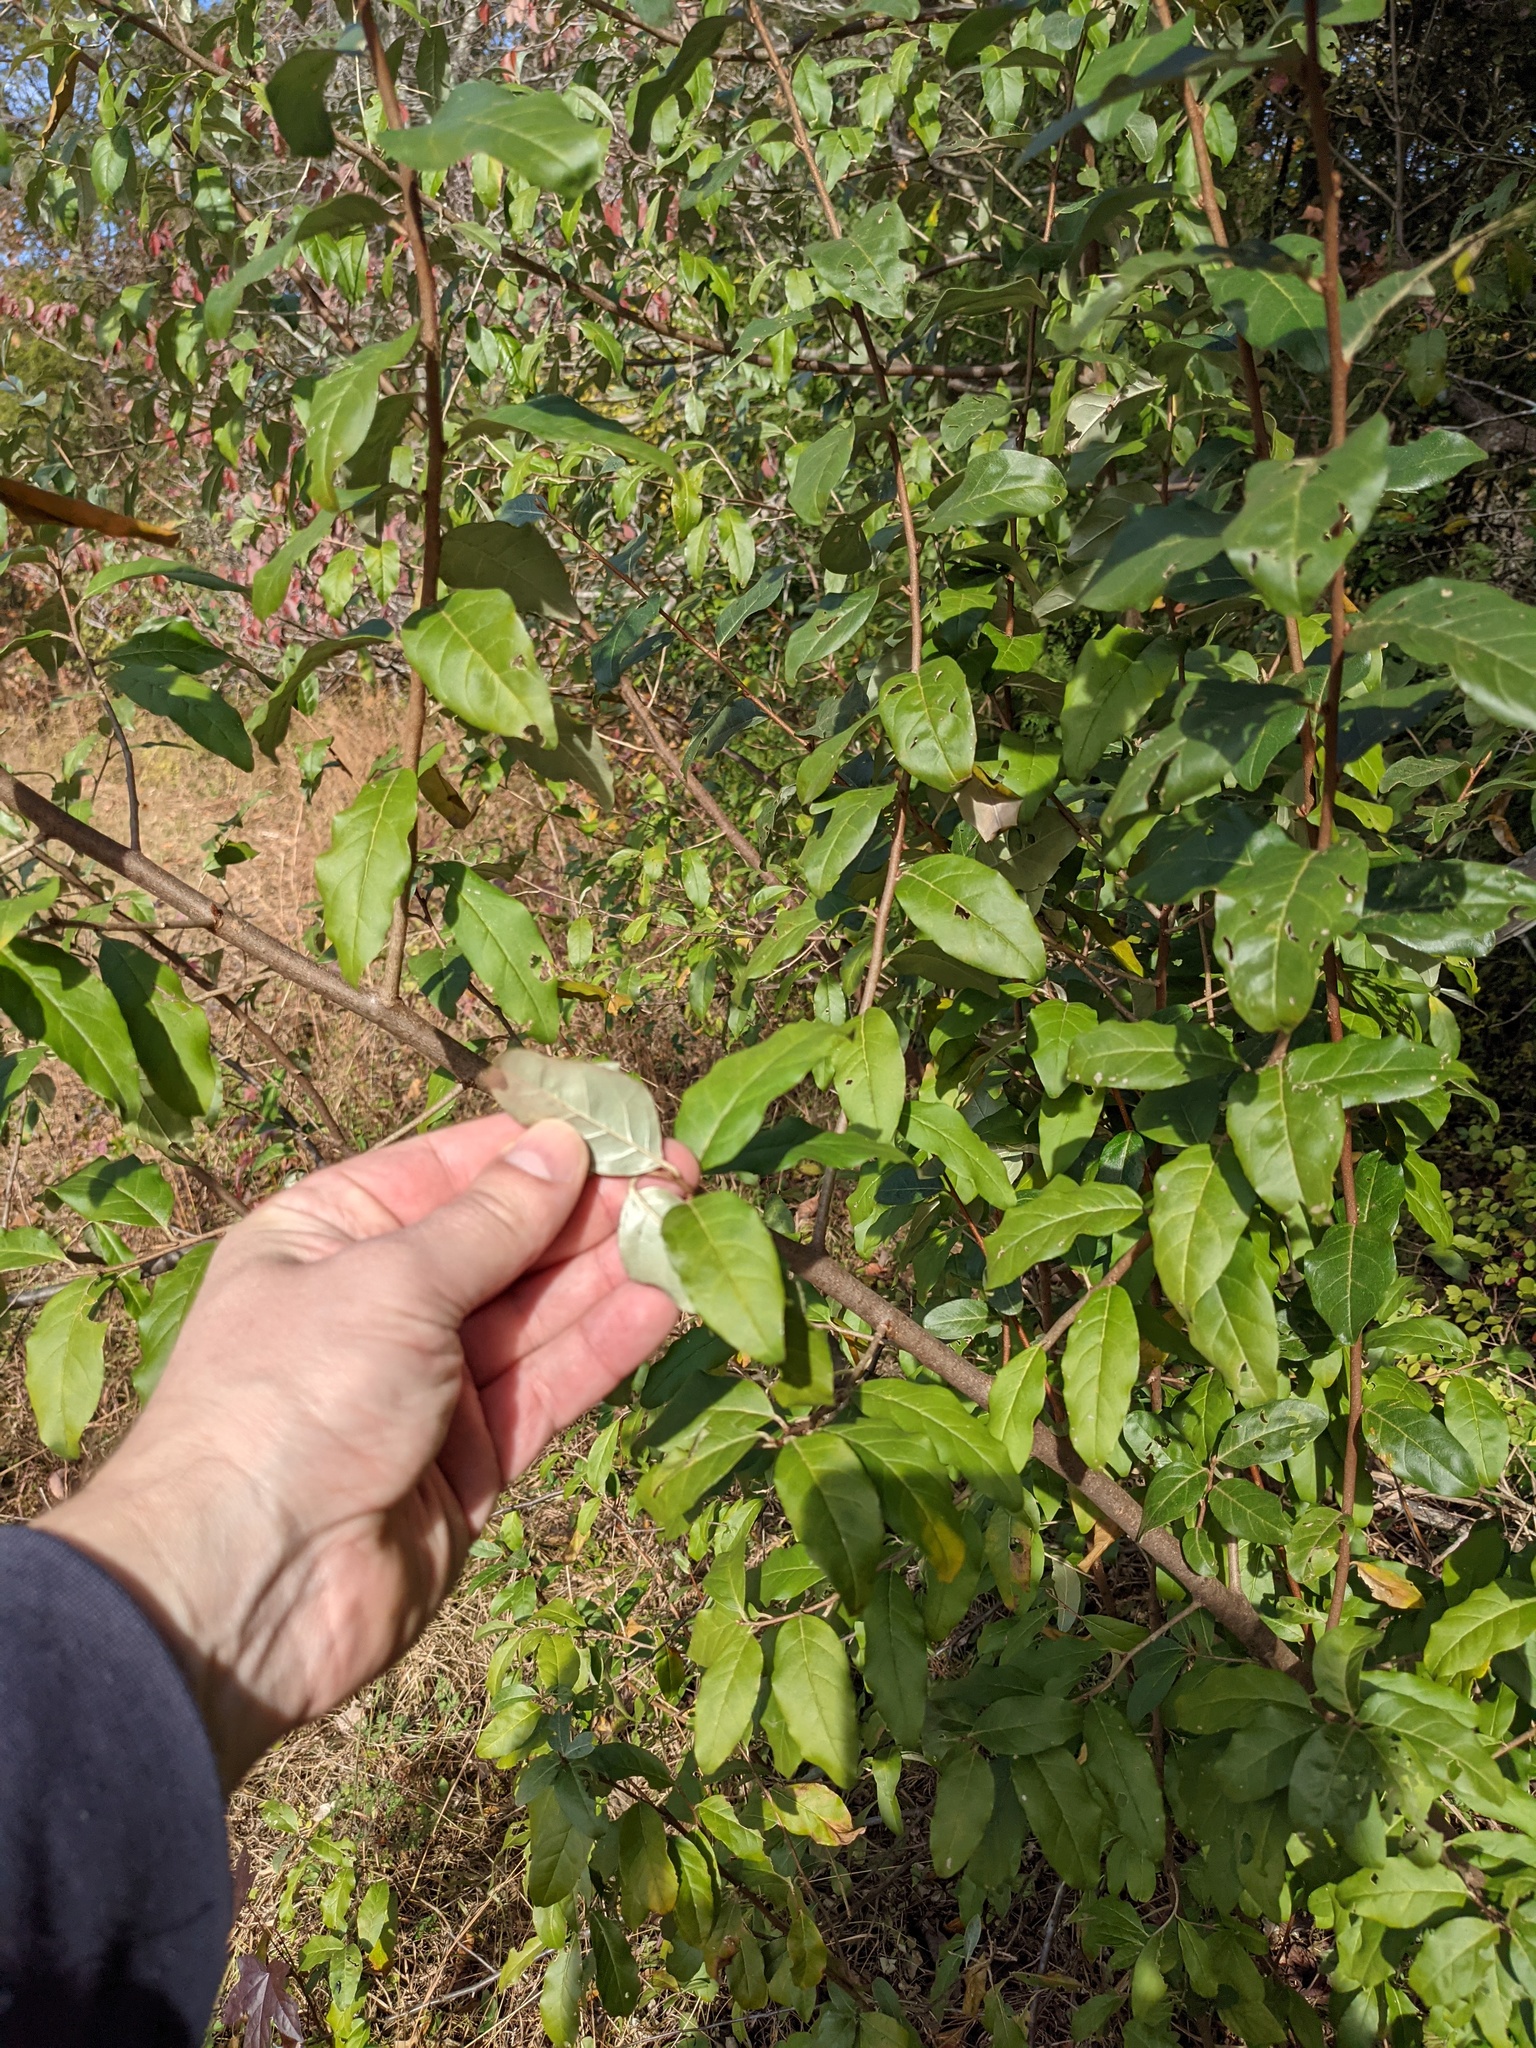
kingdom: Plantae
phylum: Tracheophyta
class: Magnoliopsida
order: Rosales
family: Elaeagnaceae
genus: Elaeagnus
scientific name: Elaeagnus umbellata
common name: Autumn olive
